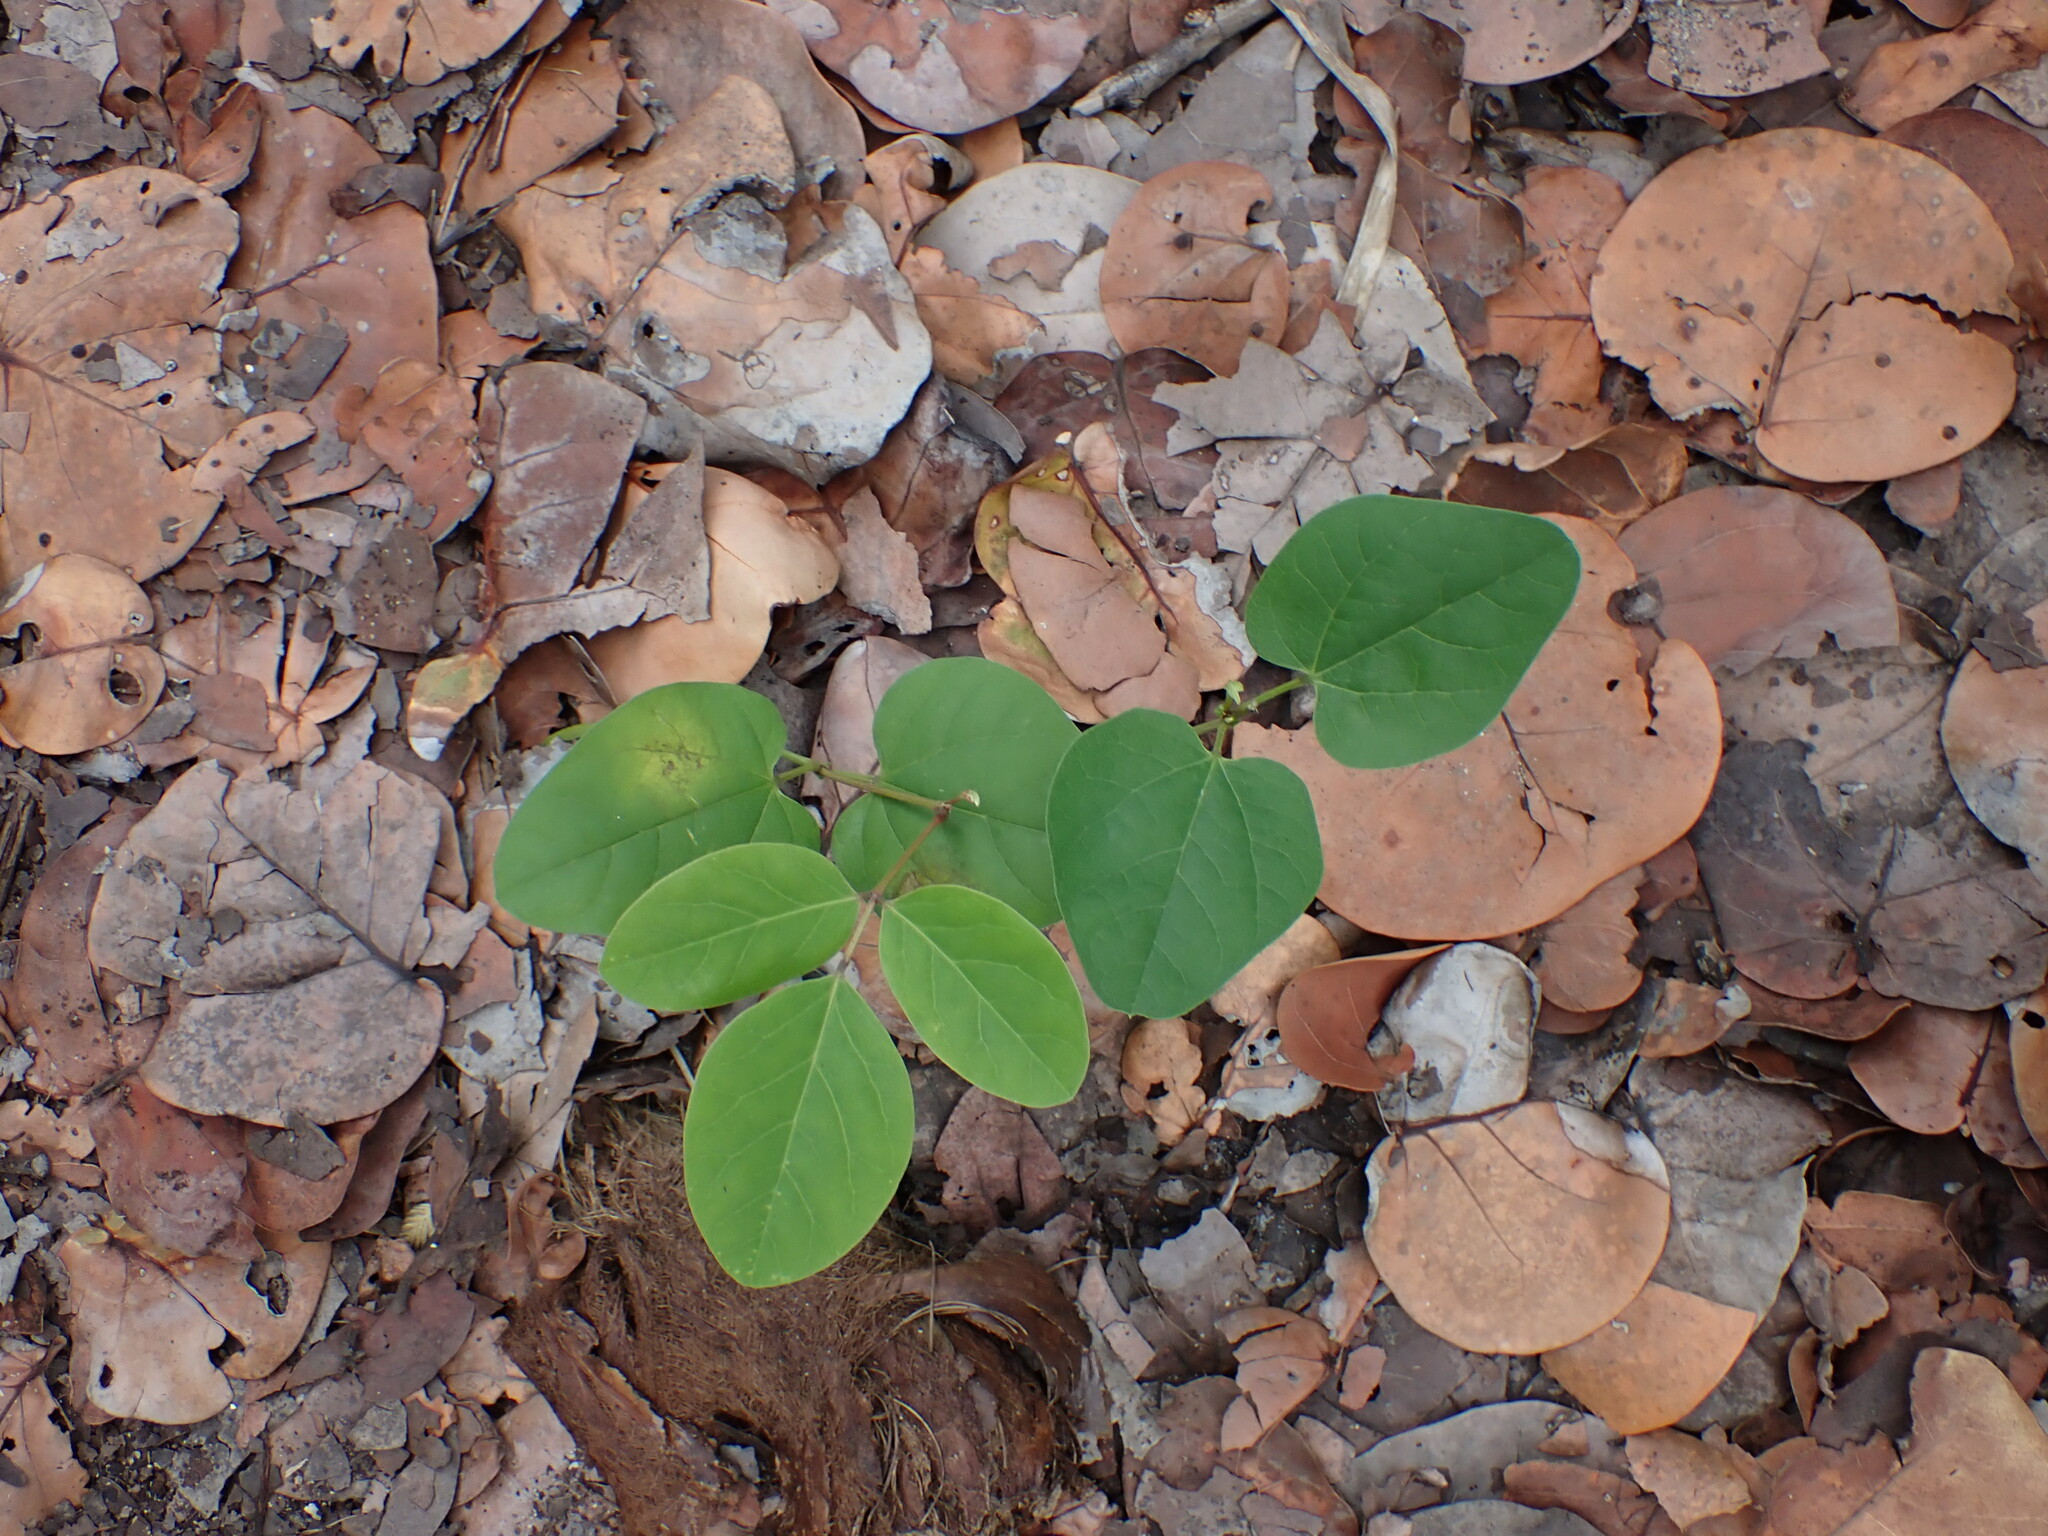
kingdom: Plantae
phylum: Tracheophyta
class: Magnoliopsida
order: Fabales
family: Fabaceae
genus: Canavalia
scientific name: Canavalia rosea
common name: Beach-bean
